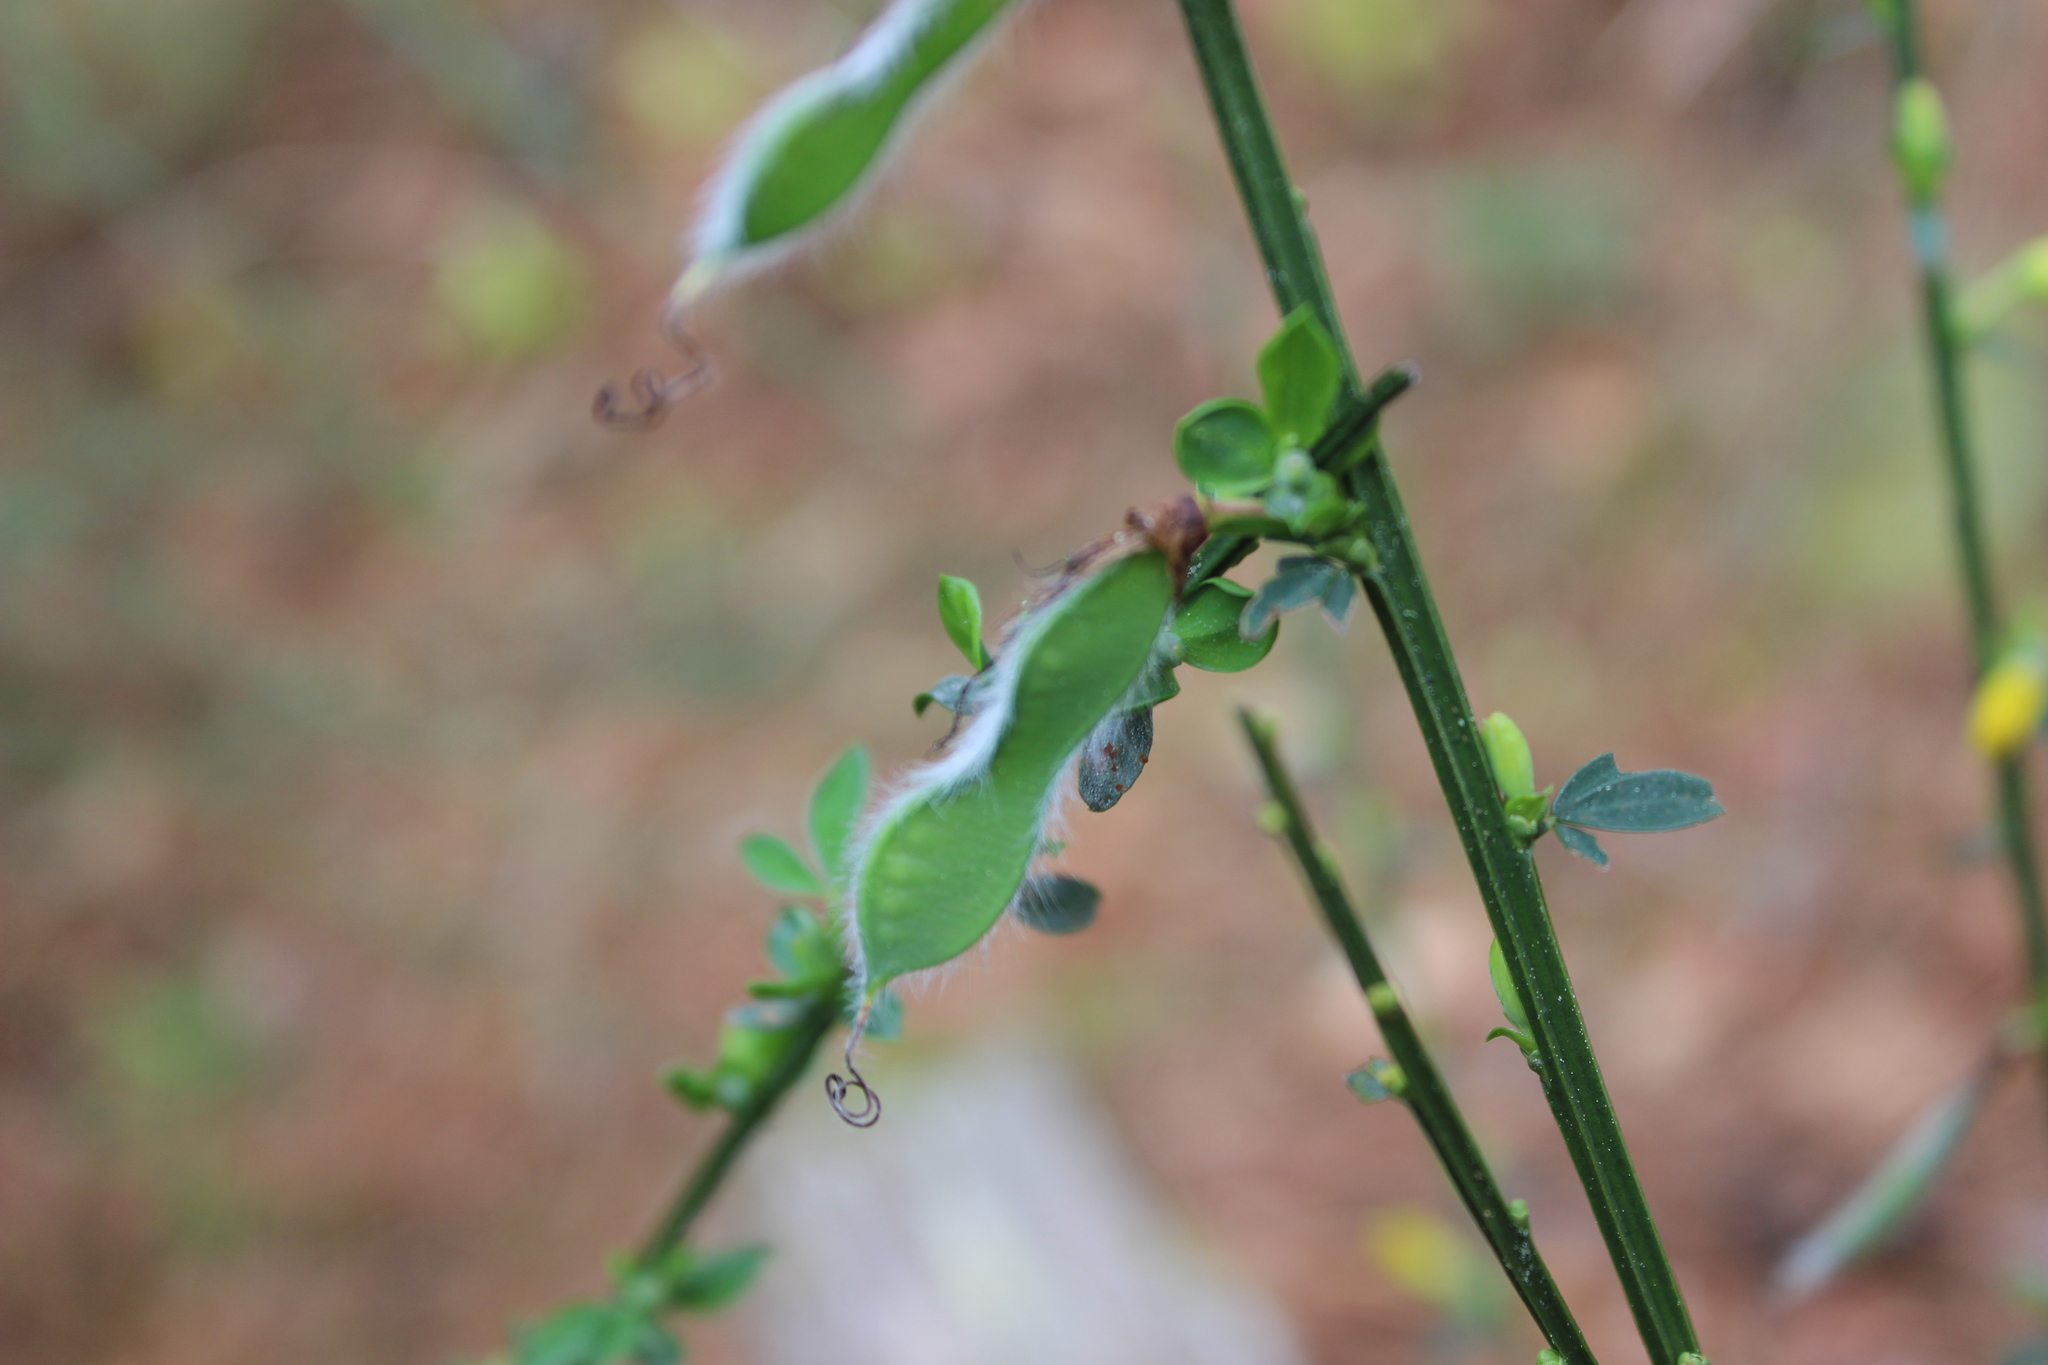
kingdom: Plantae
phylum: Tracheophyta
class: Magnoliopsida
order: Fabales
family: Fabaceae
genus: Cytisus
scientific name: Cytisus scoparius
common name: Scotch broom
